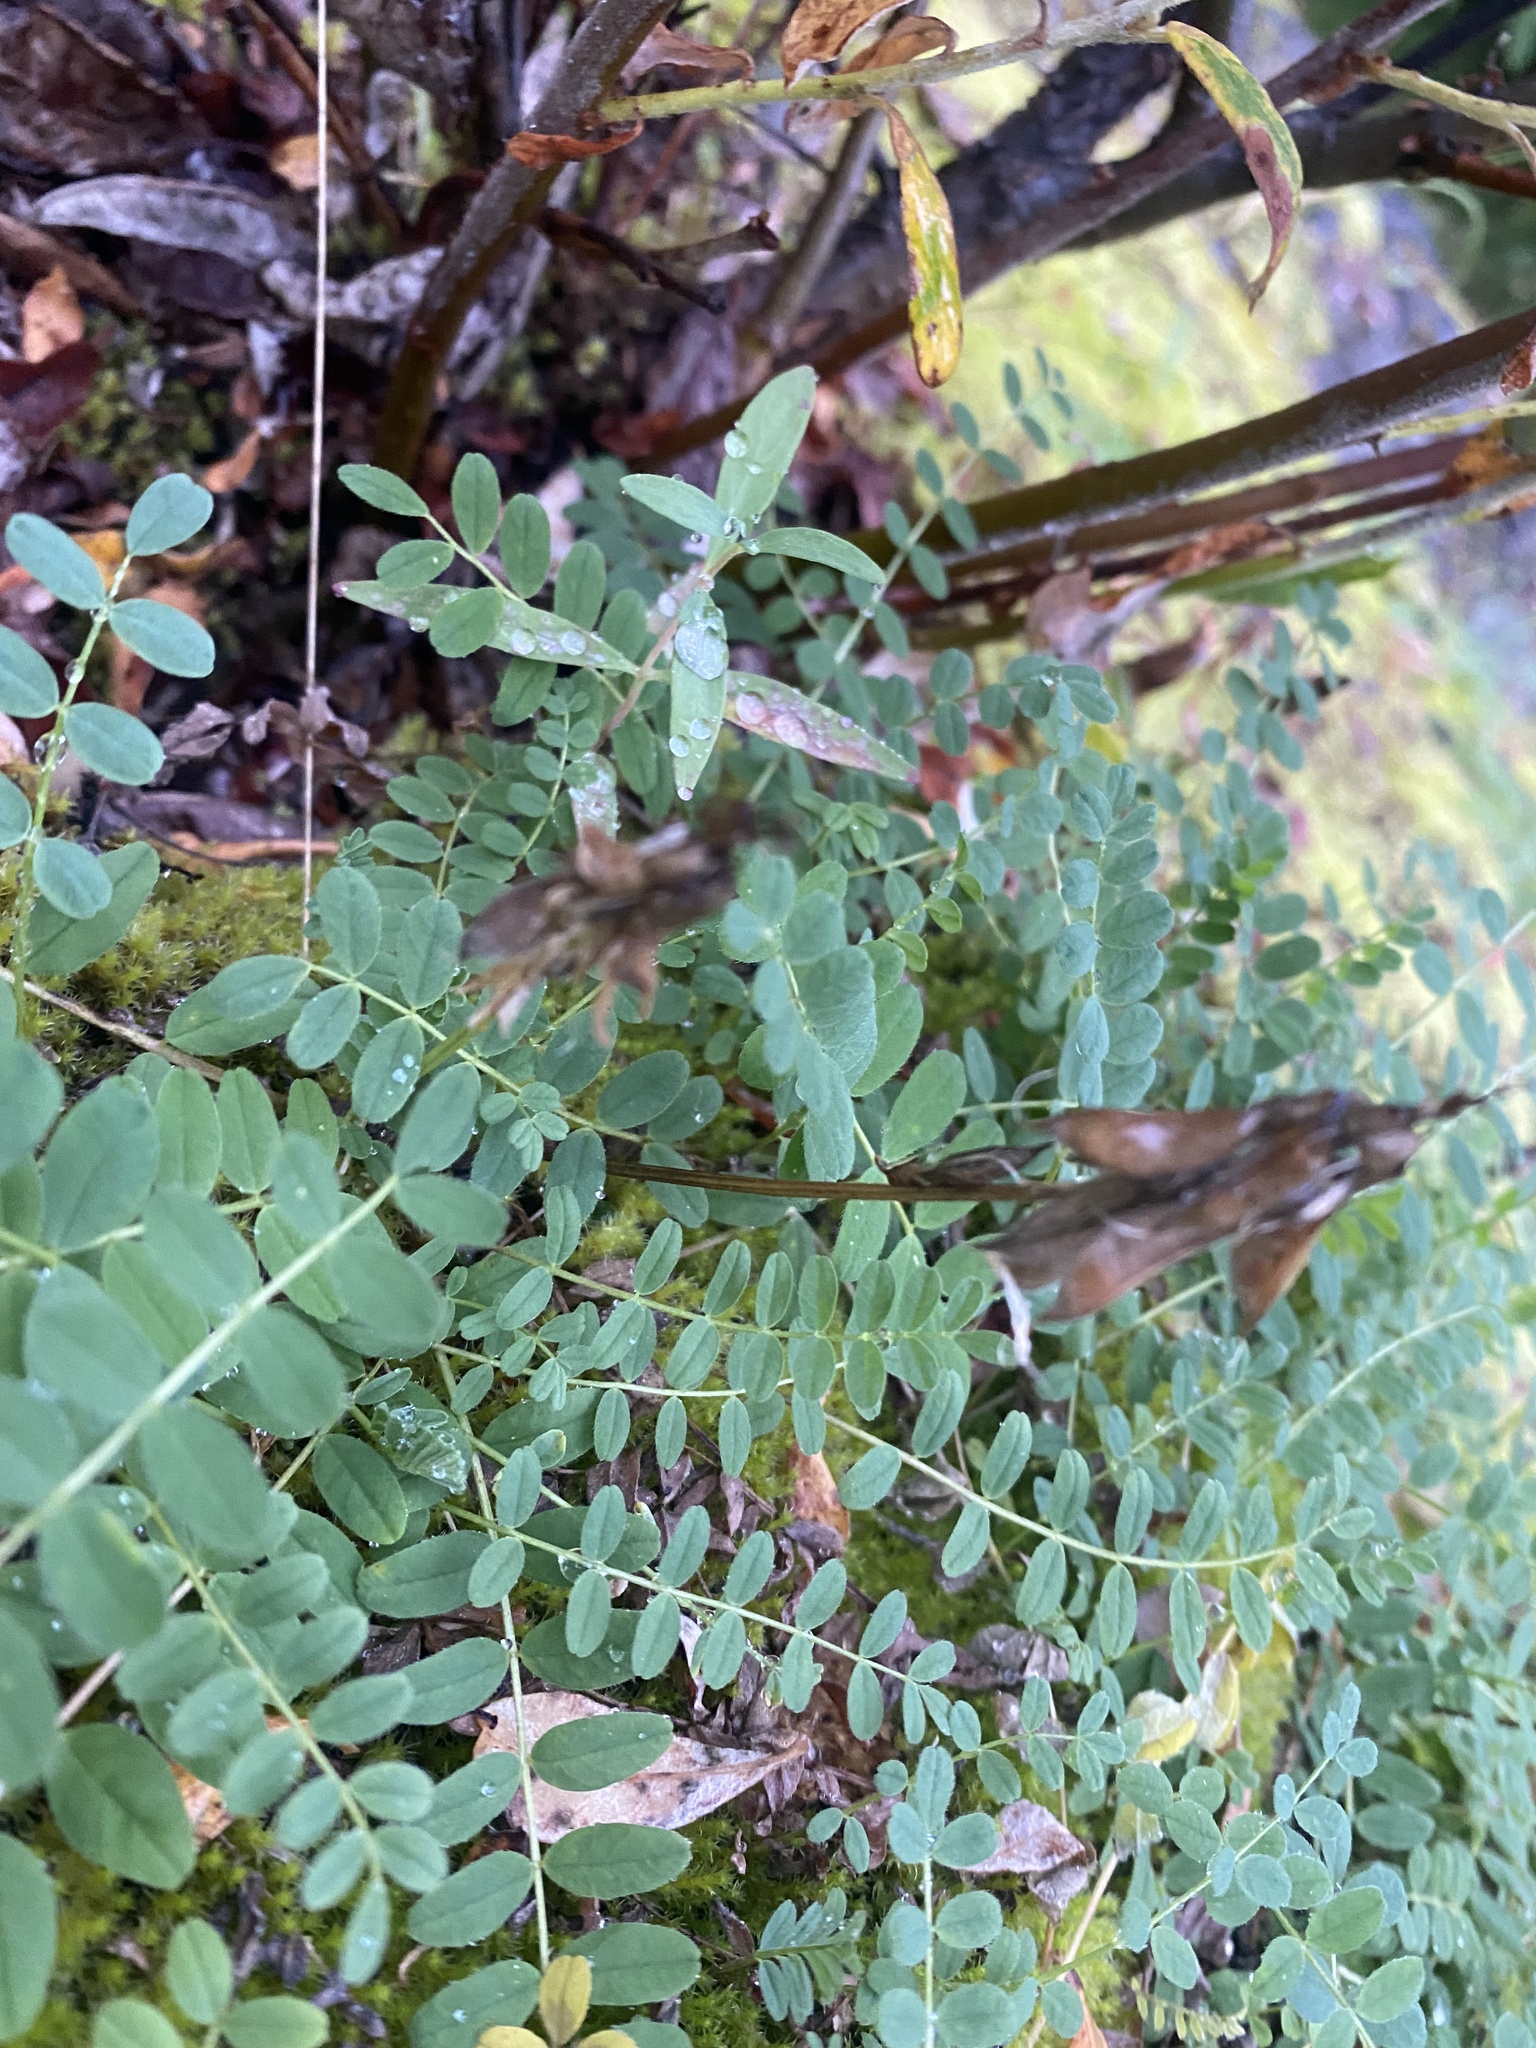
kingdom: Plantae
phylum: Tracheophyta
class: Magnoliopsida
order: Fabales
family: Fabaceae
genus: Astragalus
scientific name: Astragalus alpinus
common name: Alpine milk-vetch
